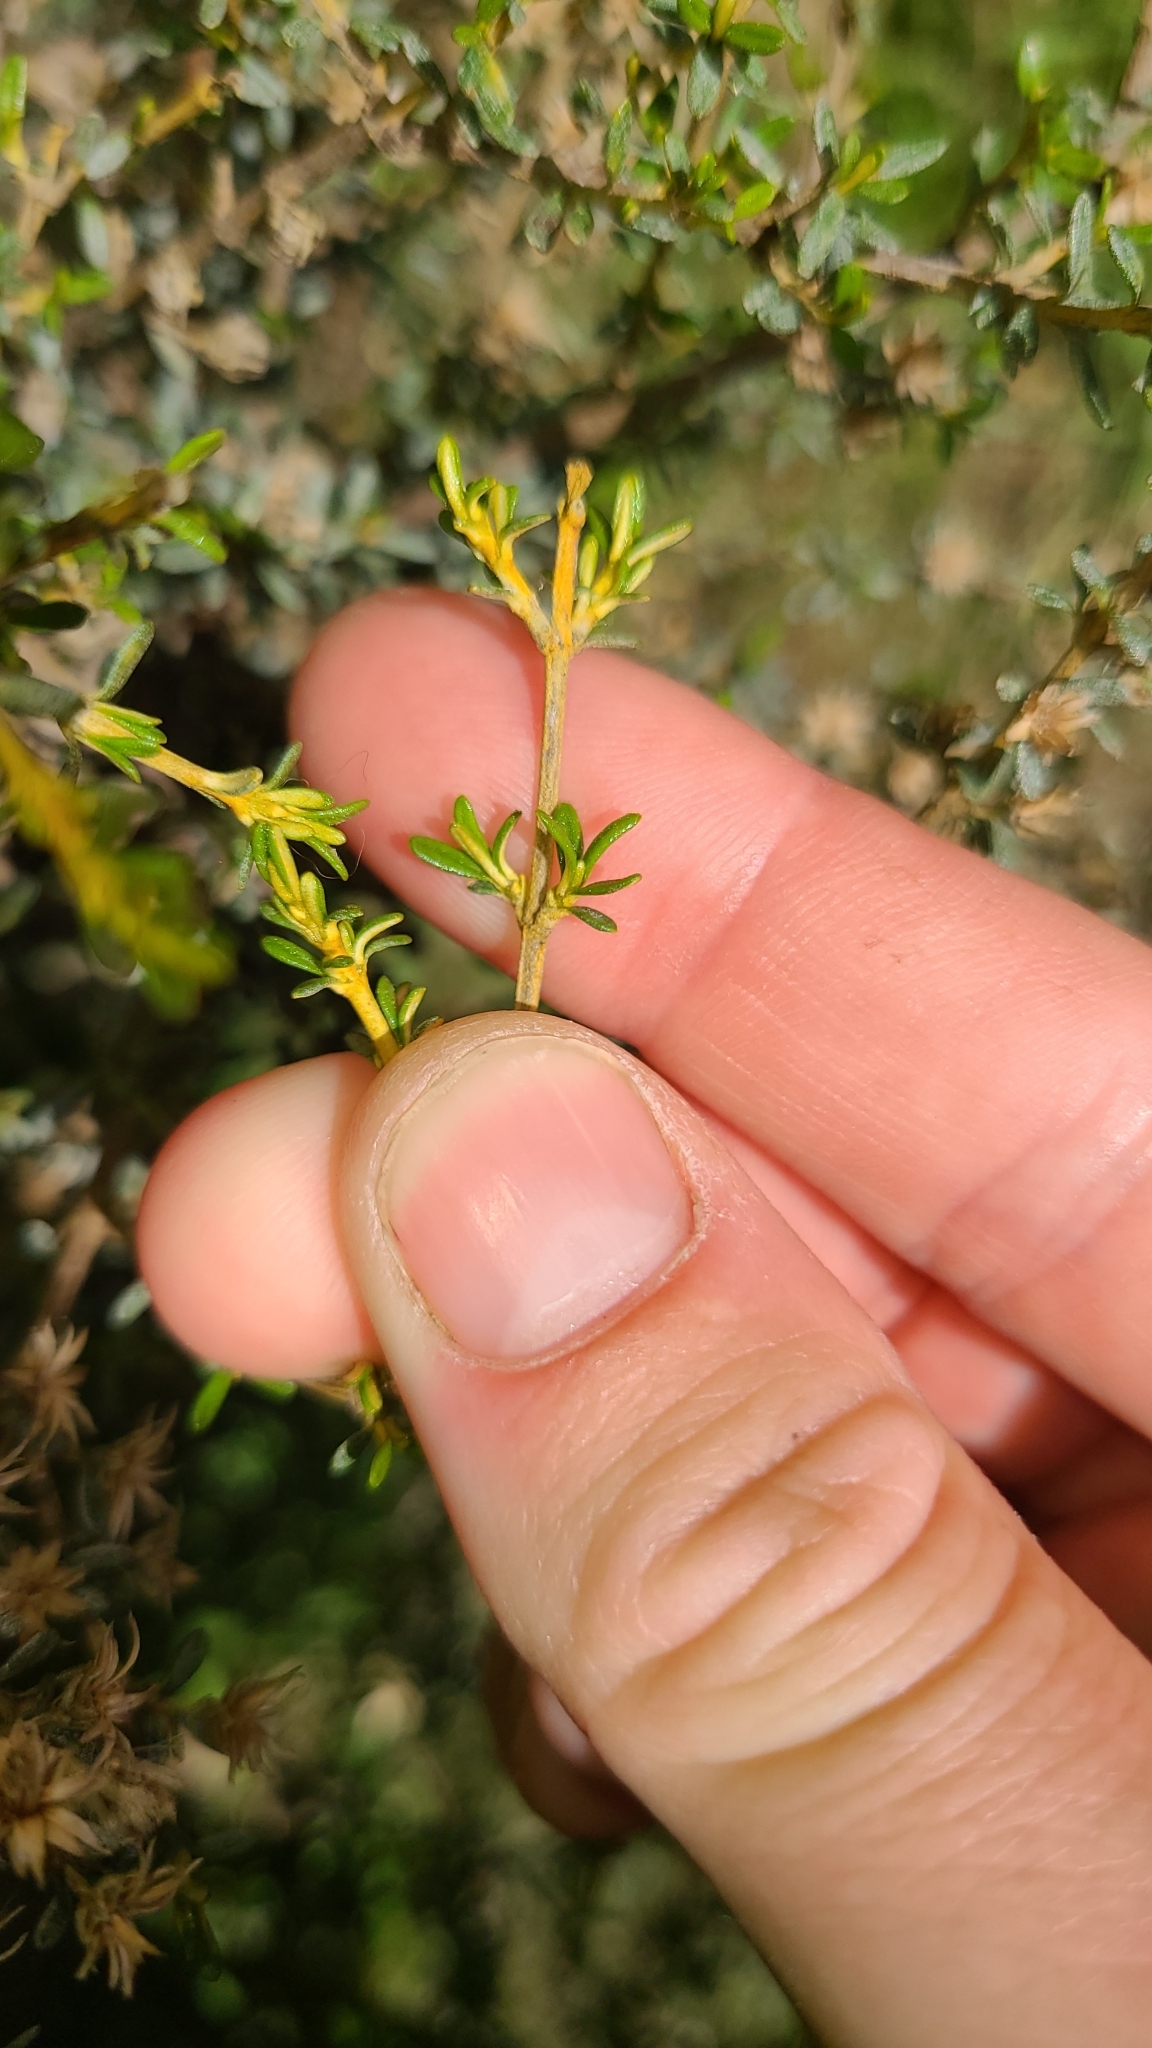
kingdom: Plantae
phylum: Tracheophyta
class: Magnoliopsida
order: Asterales
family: Asteraceae
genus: Olearia
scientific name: Olearia solandri
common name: Coastal daisybush
